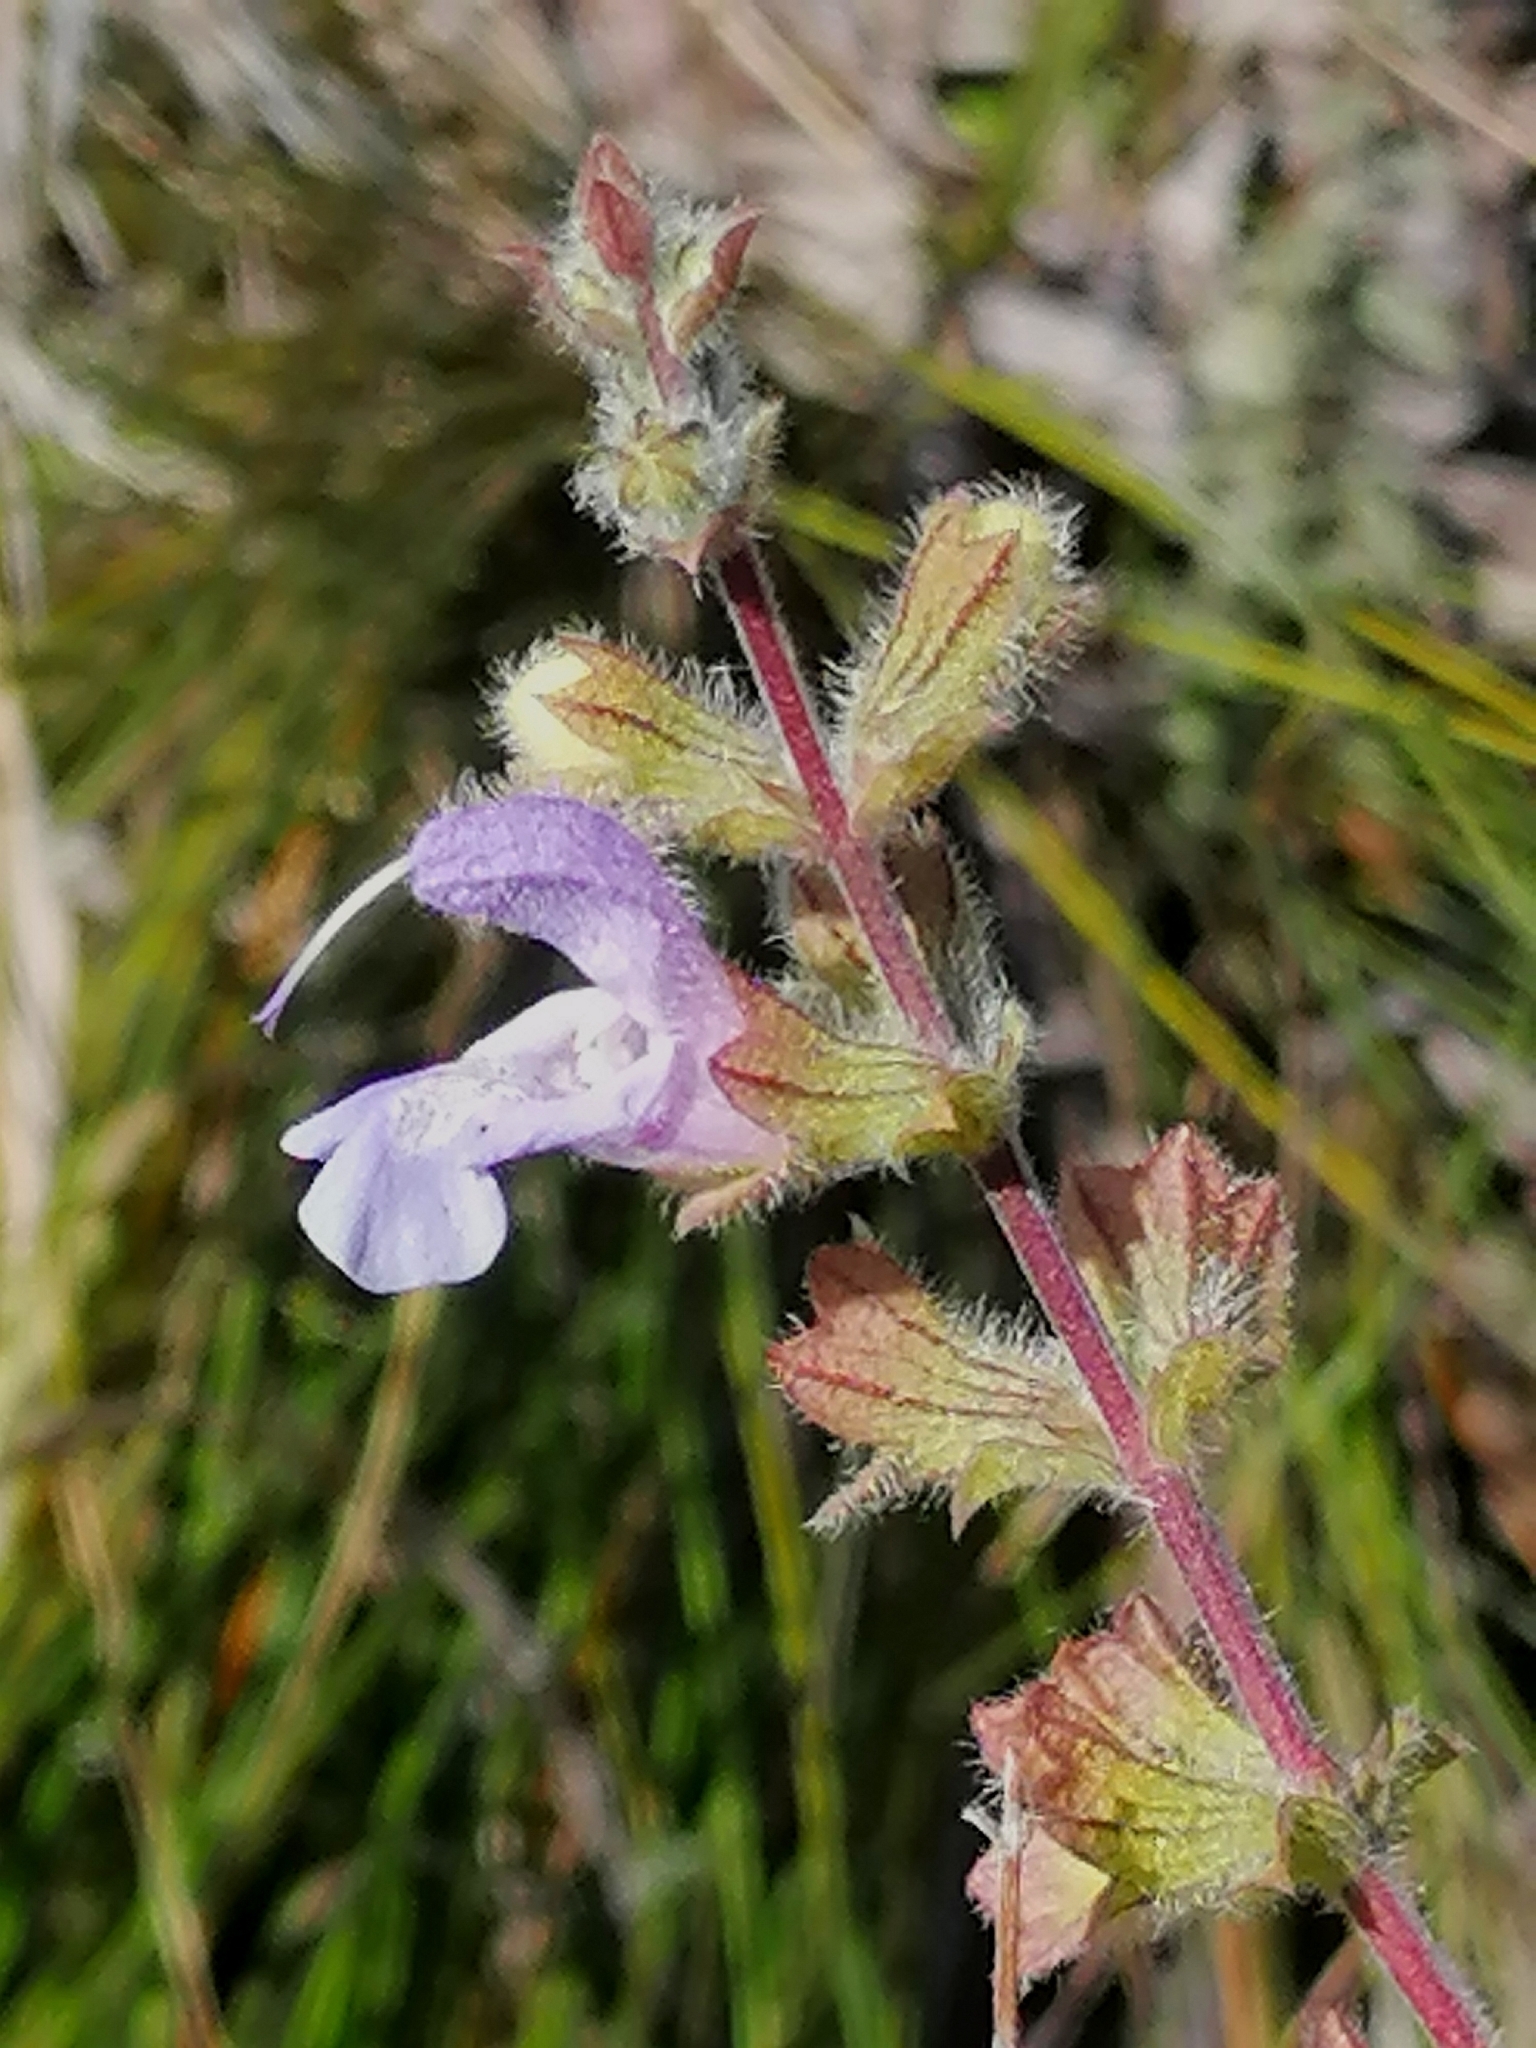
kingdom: Plantae
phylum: Tracheophyta
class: Magnoliopsida
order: Lamiales
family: Lamiaceae
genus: Salvia
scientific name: Salvia africana
